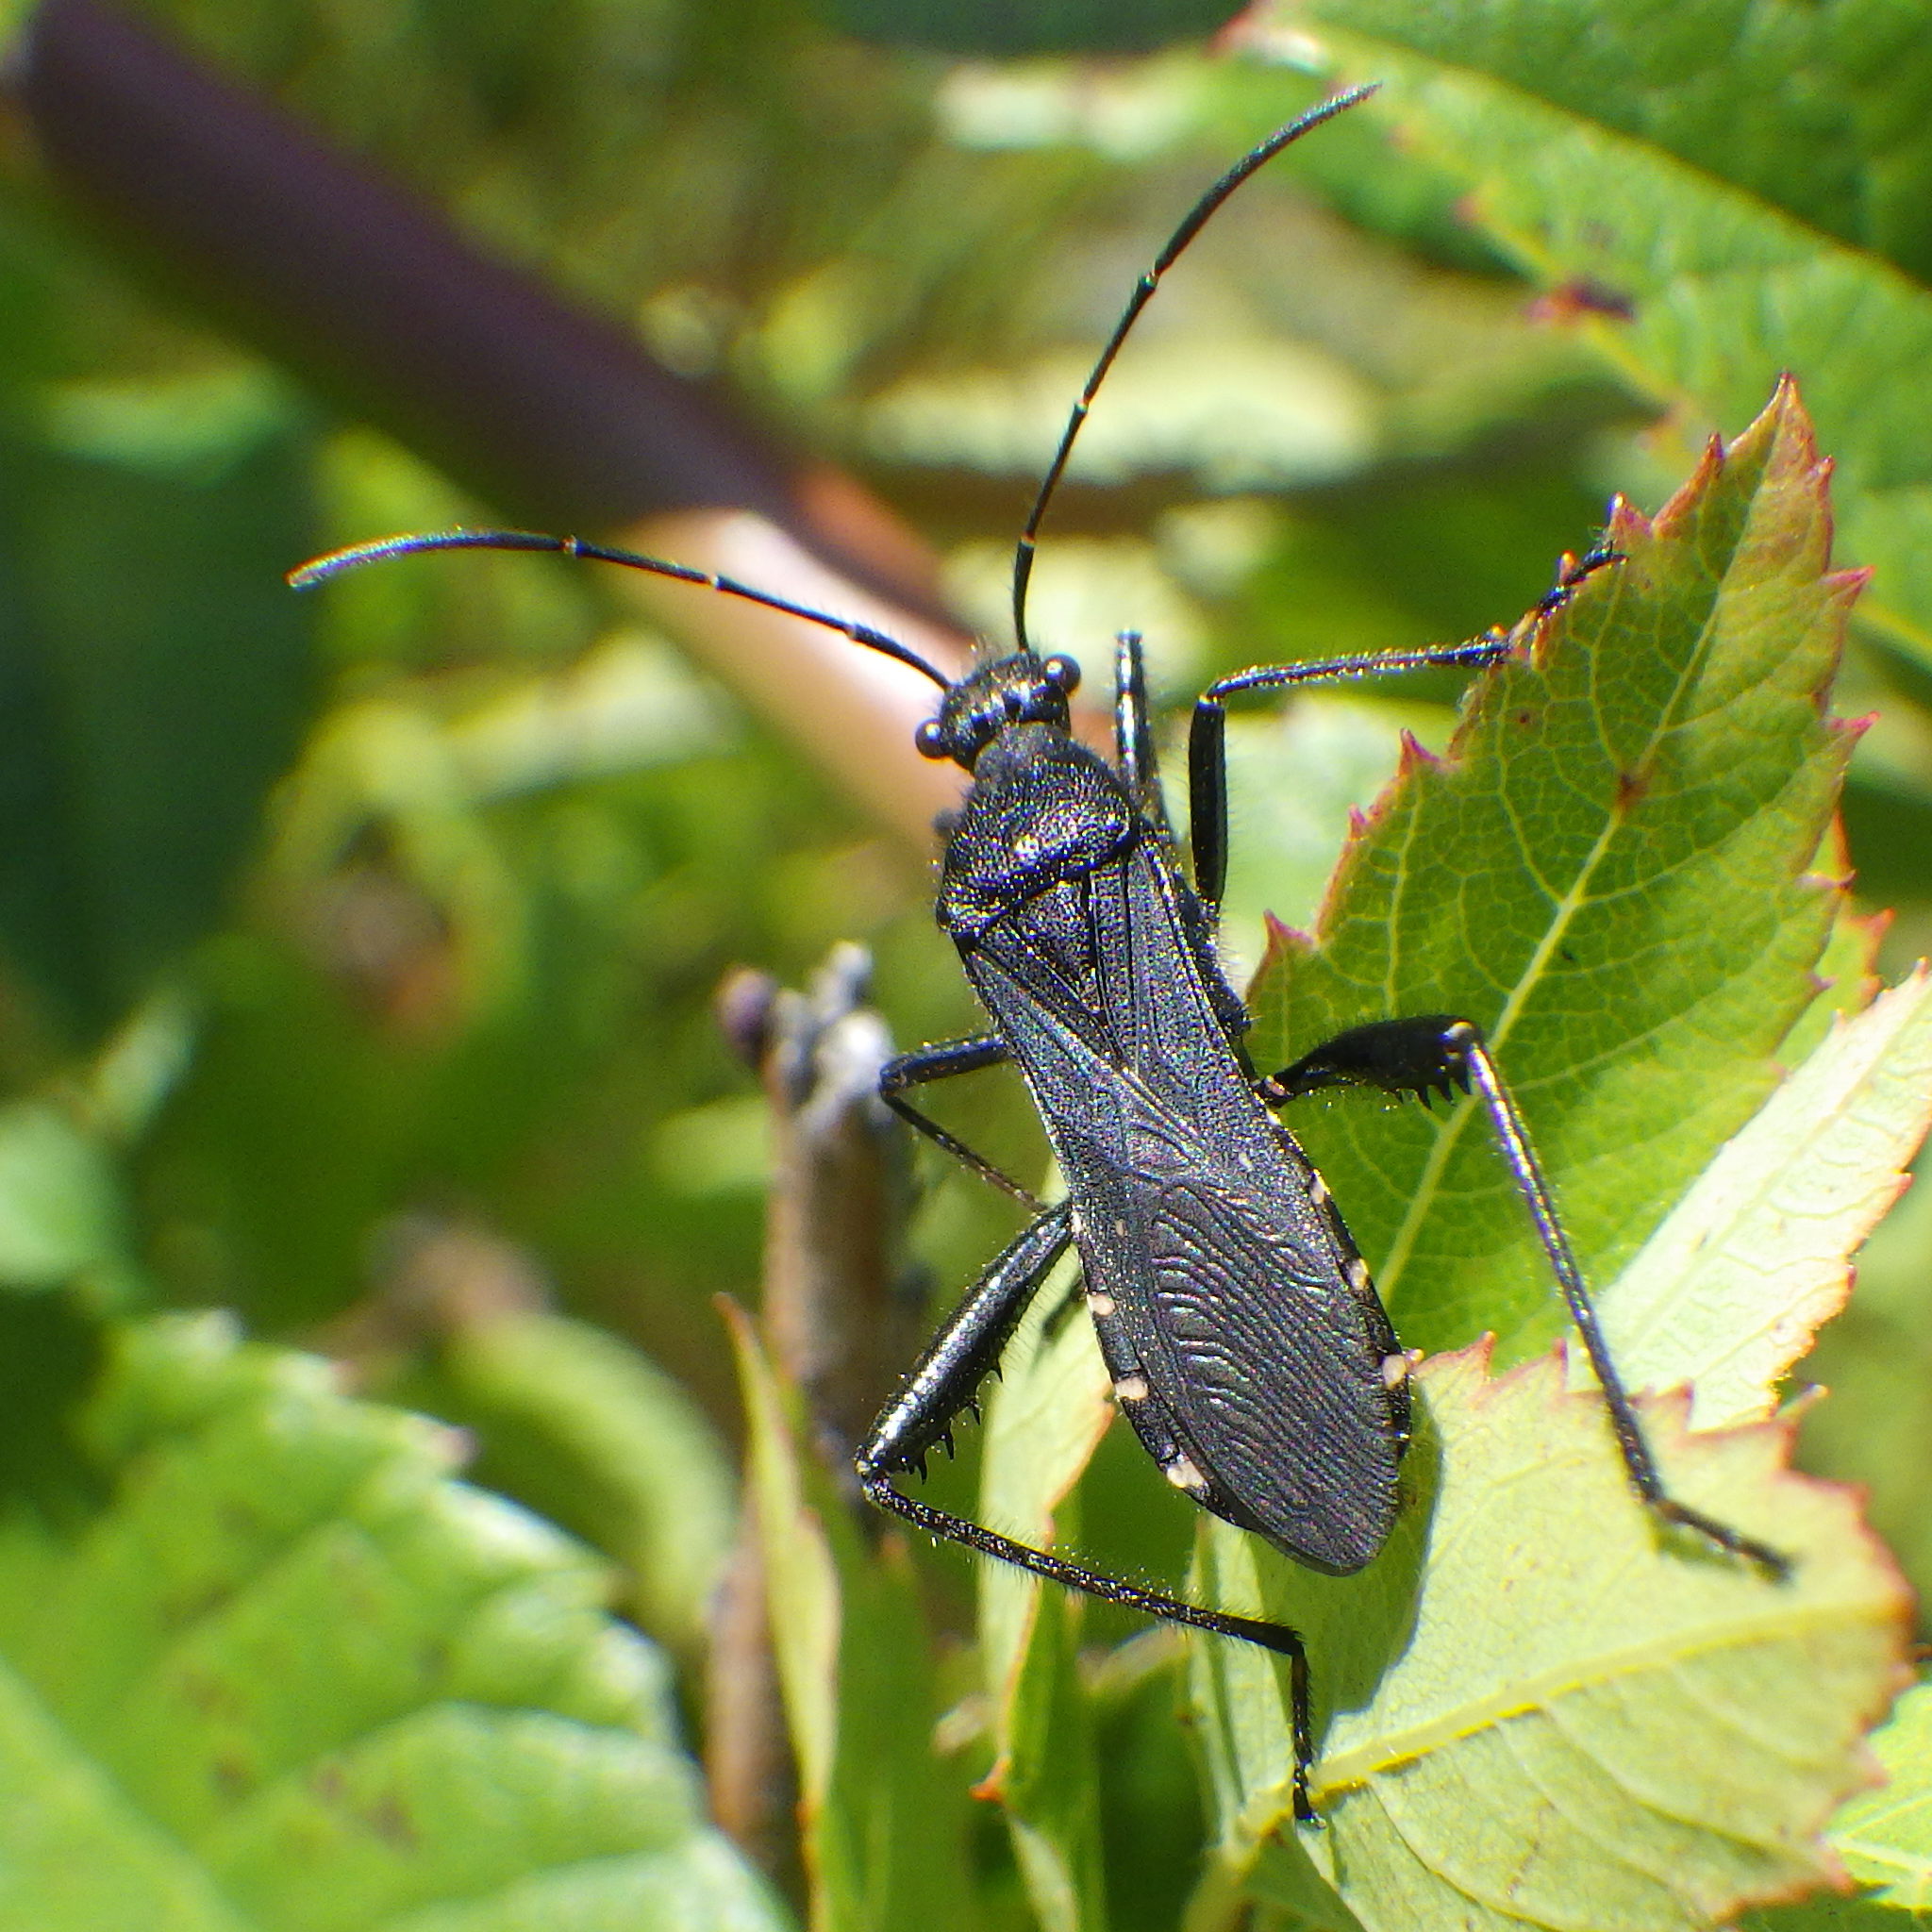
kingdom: Animalia
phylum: Arthropoda
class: Insecta
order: Hemiptera
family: Alydidae
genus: Alydus
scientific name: Alydus eurinus
